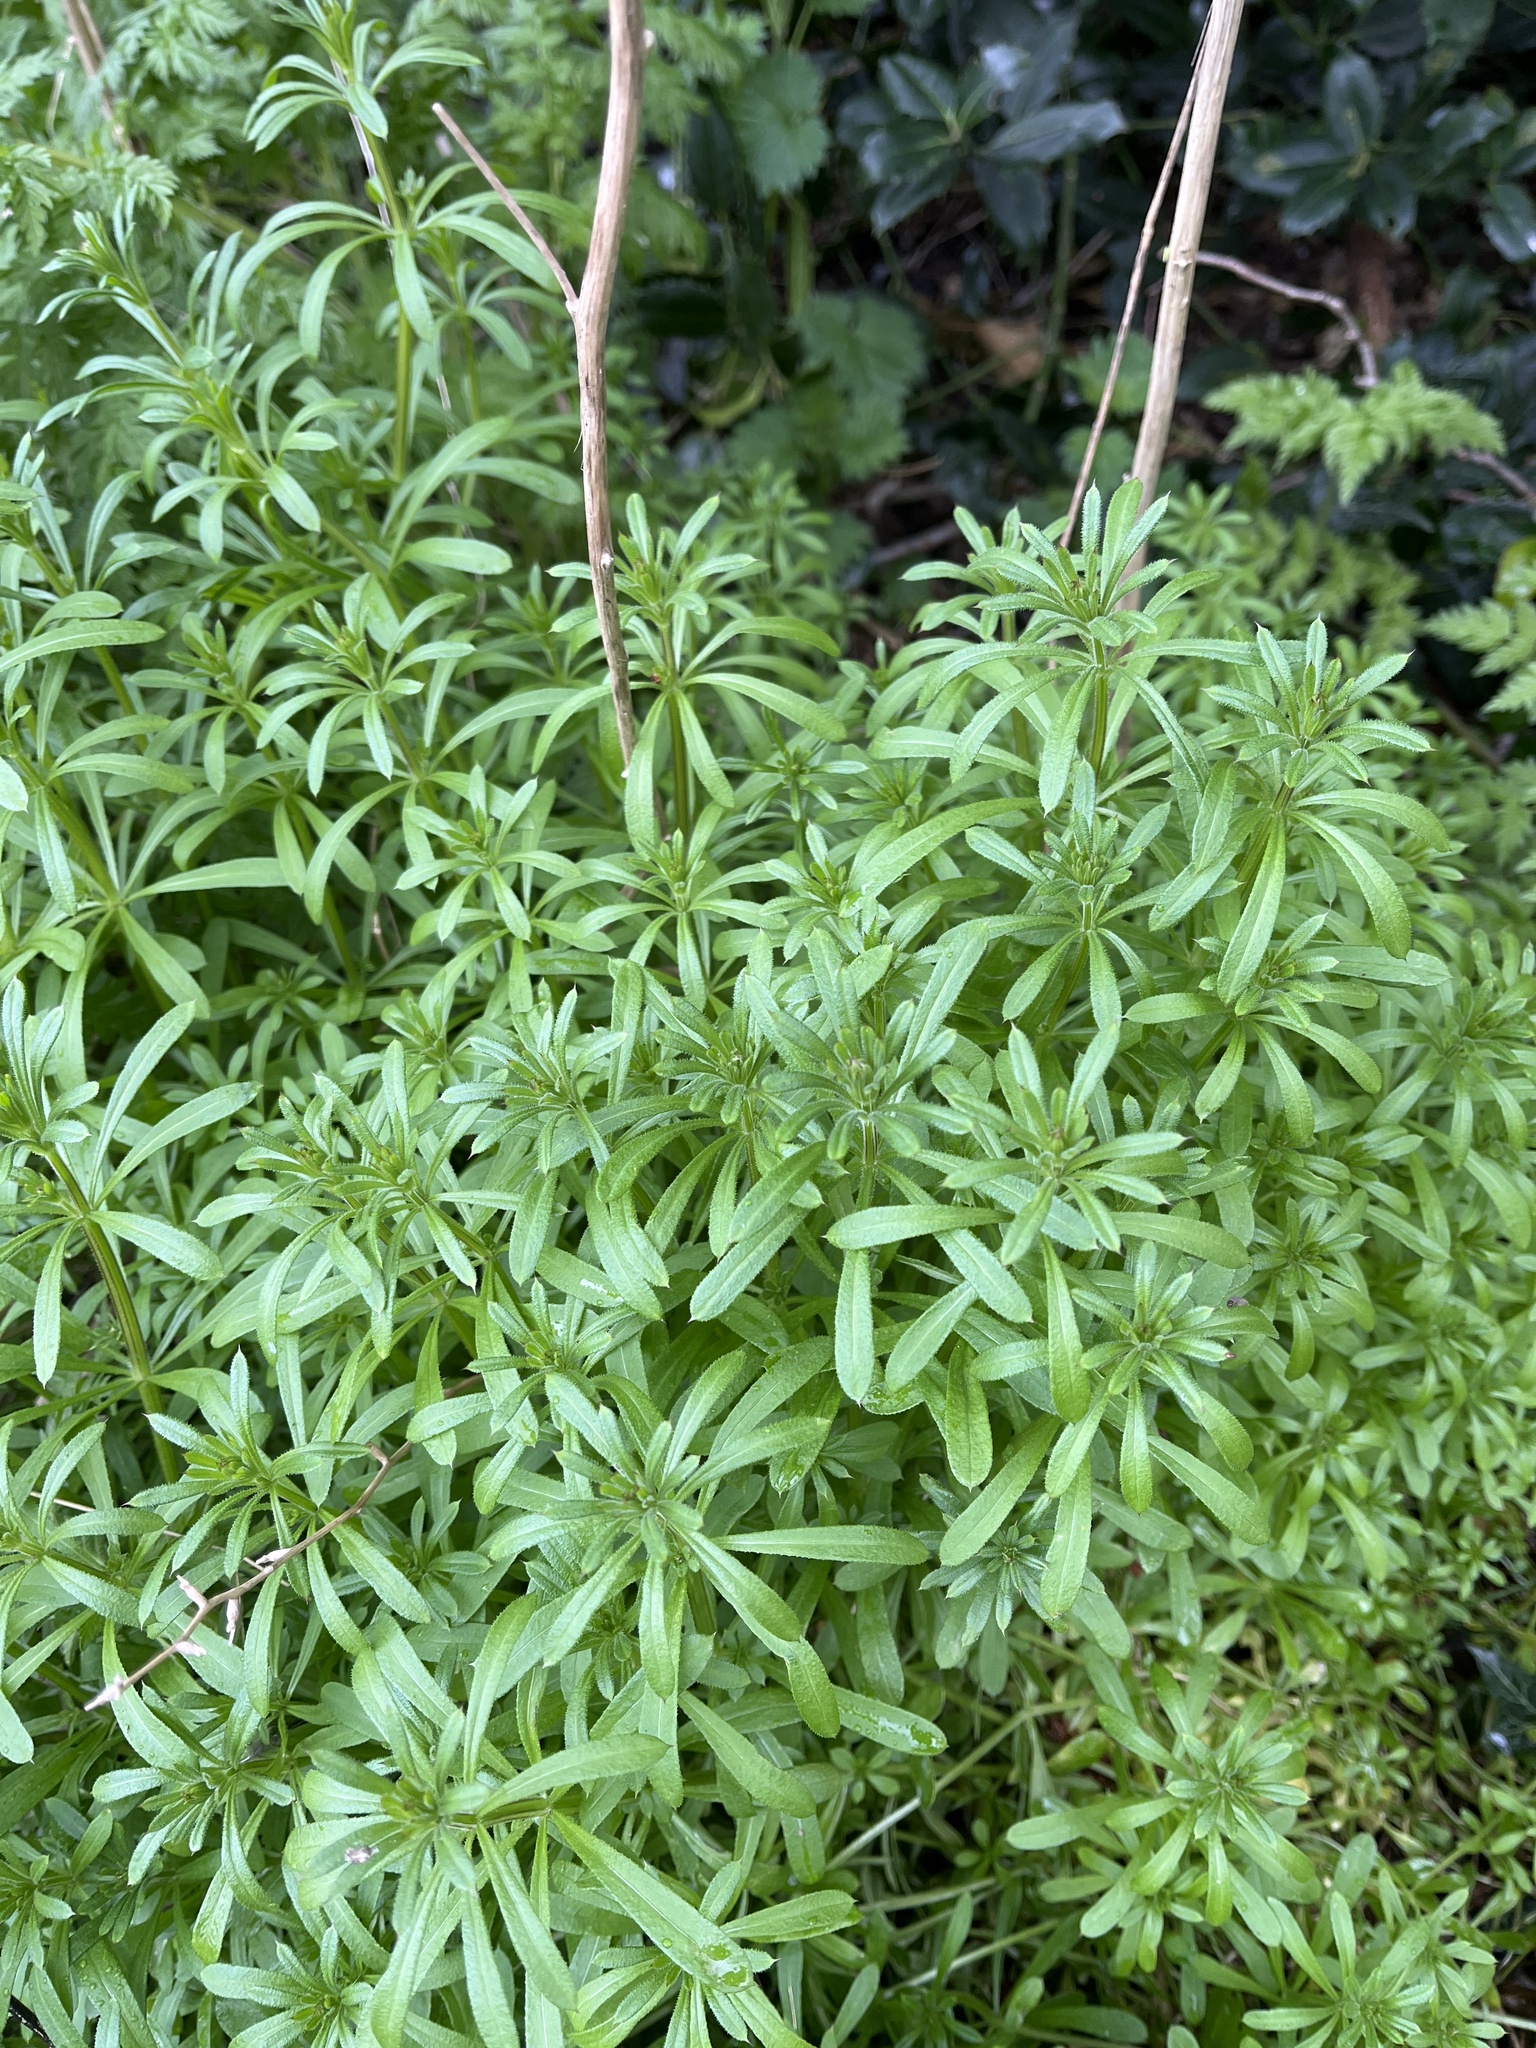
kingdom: Plantae
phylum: Tracheophyta
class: Magnoliopsida
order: Gentianales
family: Rubiaceae
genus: Galium
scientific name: Galium aparine
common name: Cleavers
